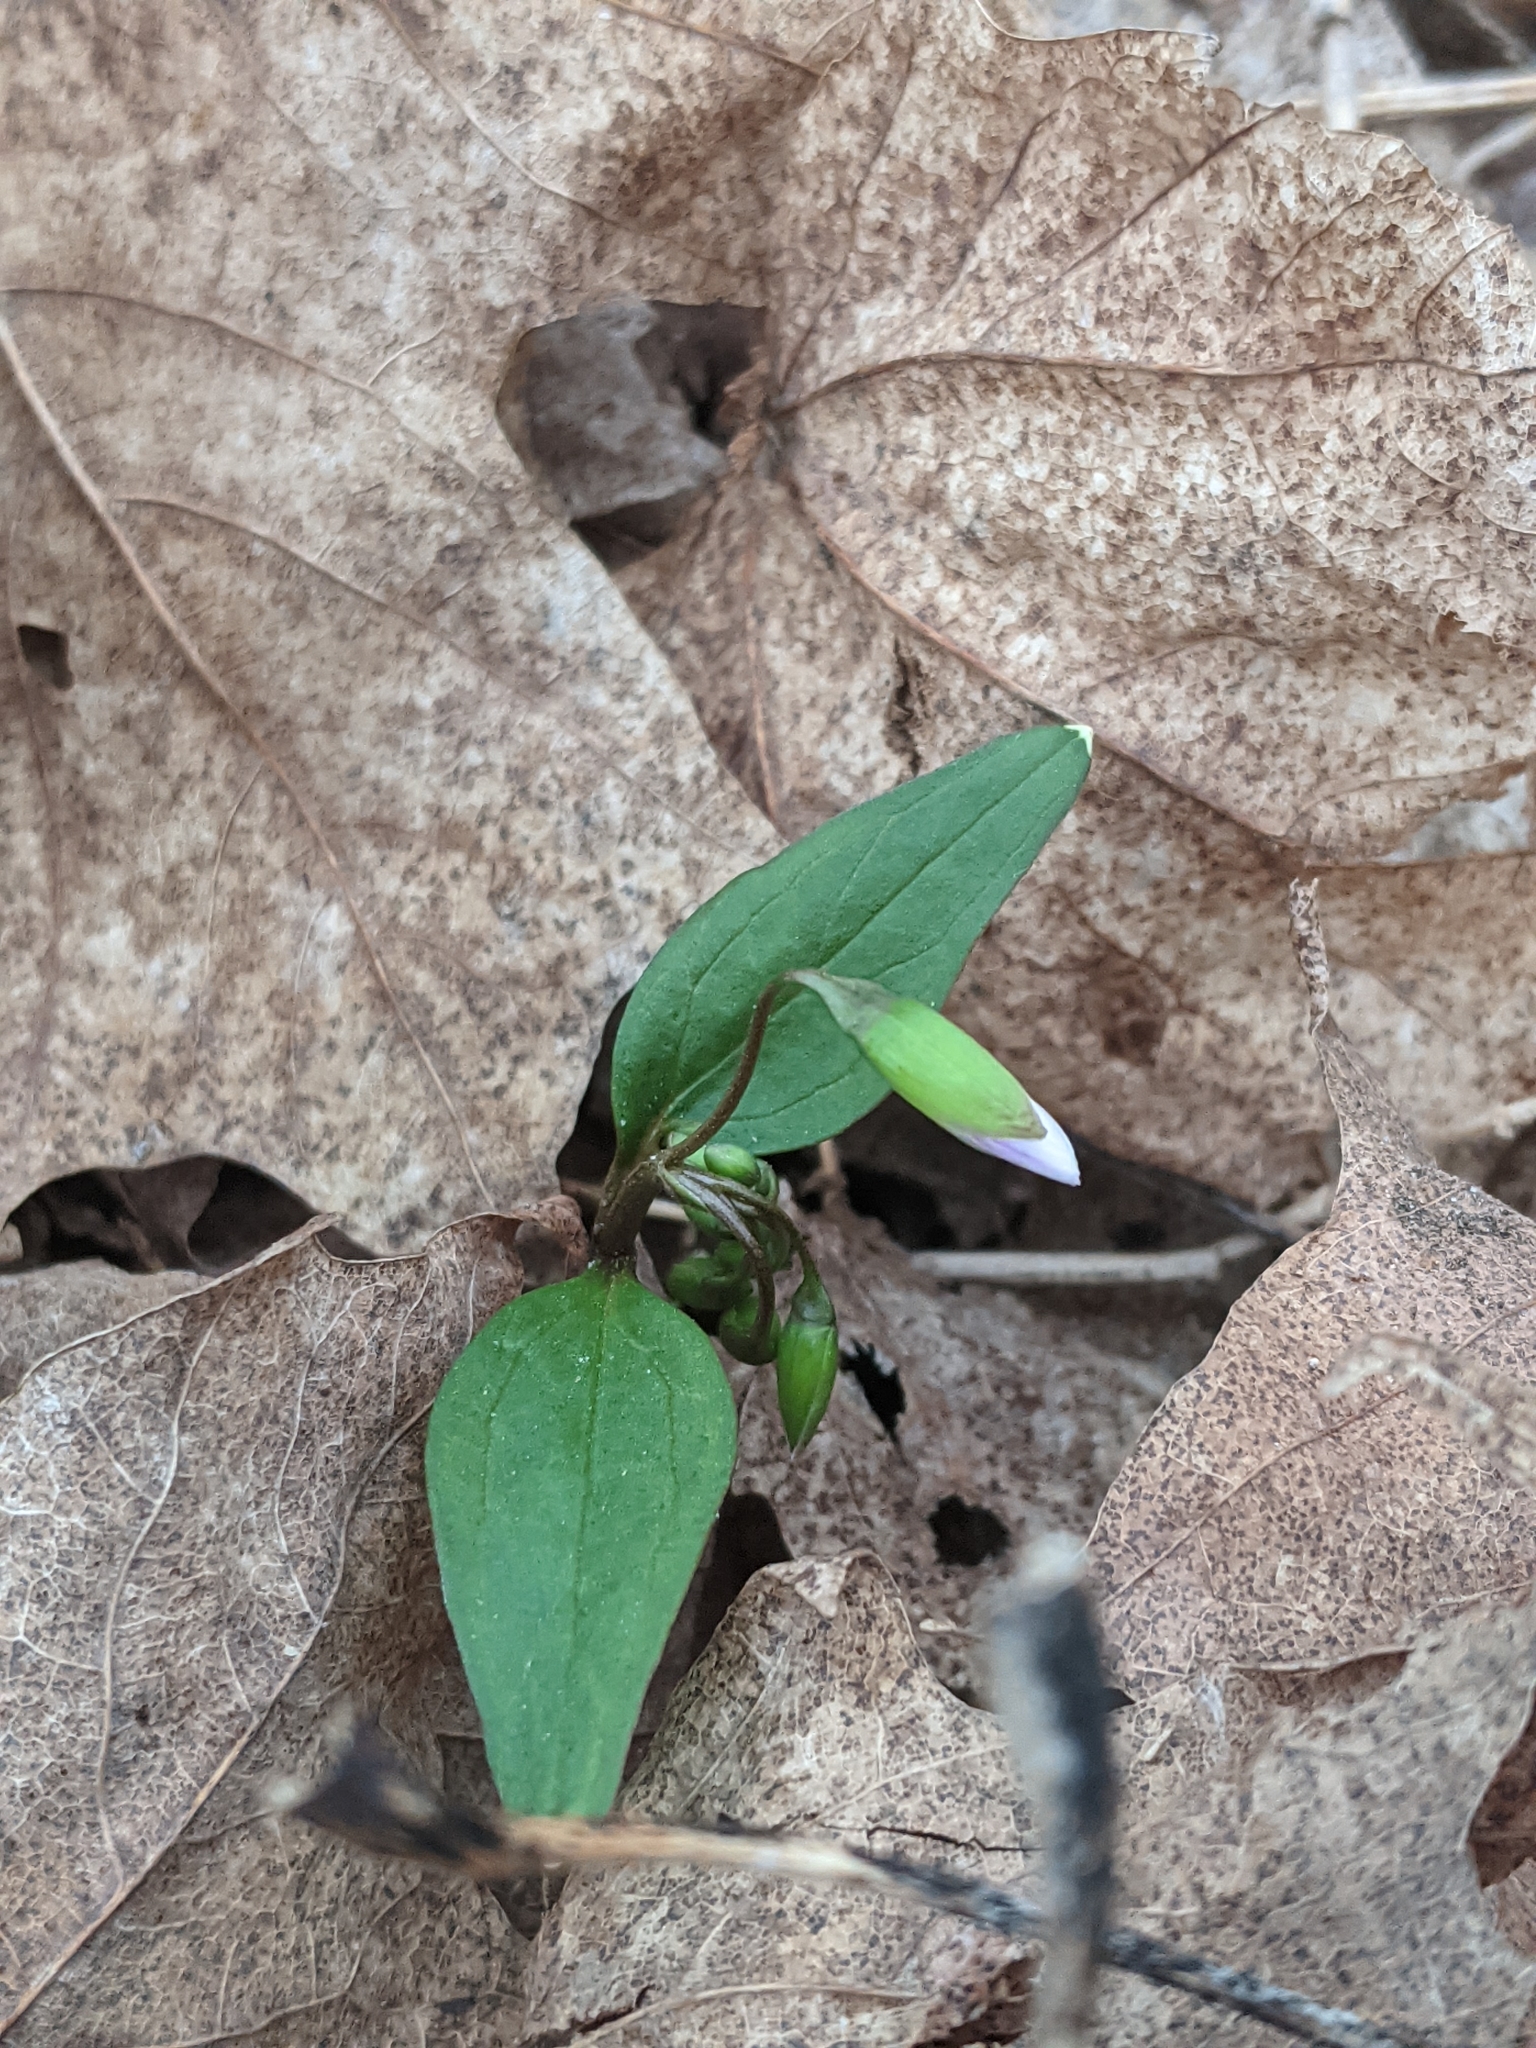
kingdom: Plantae
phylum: Tracheophyta
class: Magnoliopsida
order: Caryophyllales
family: Montiaceae
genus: Claytonia
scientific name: Claytonia caroliniana
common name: Carolina spring beauty
